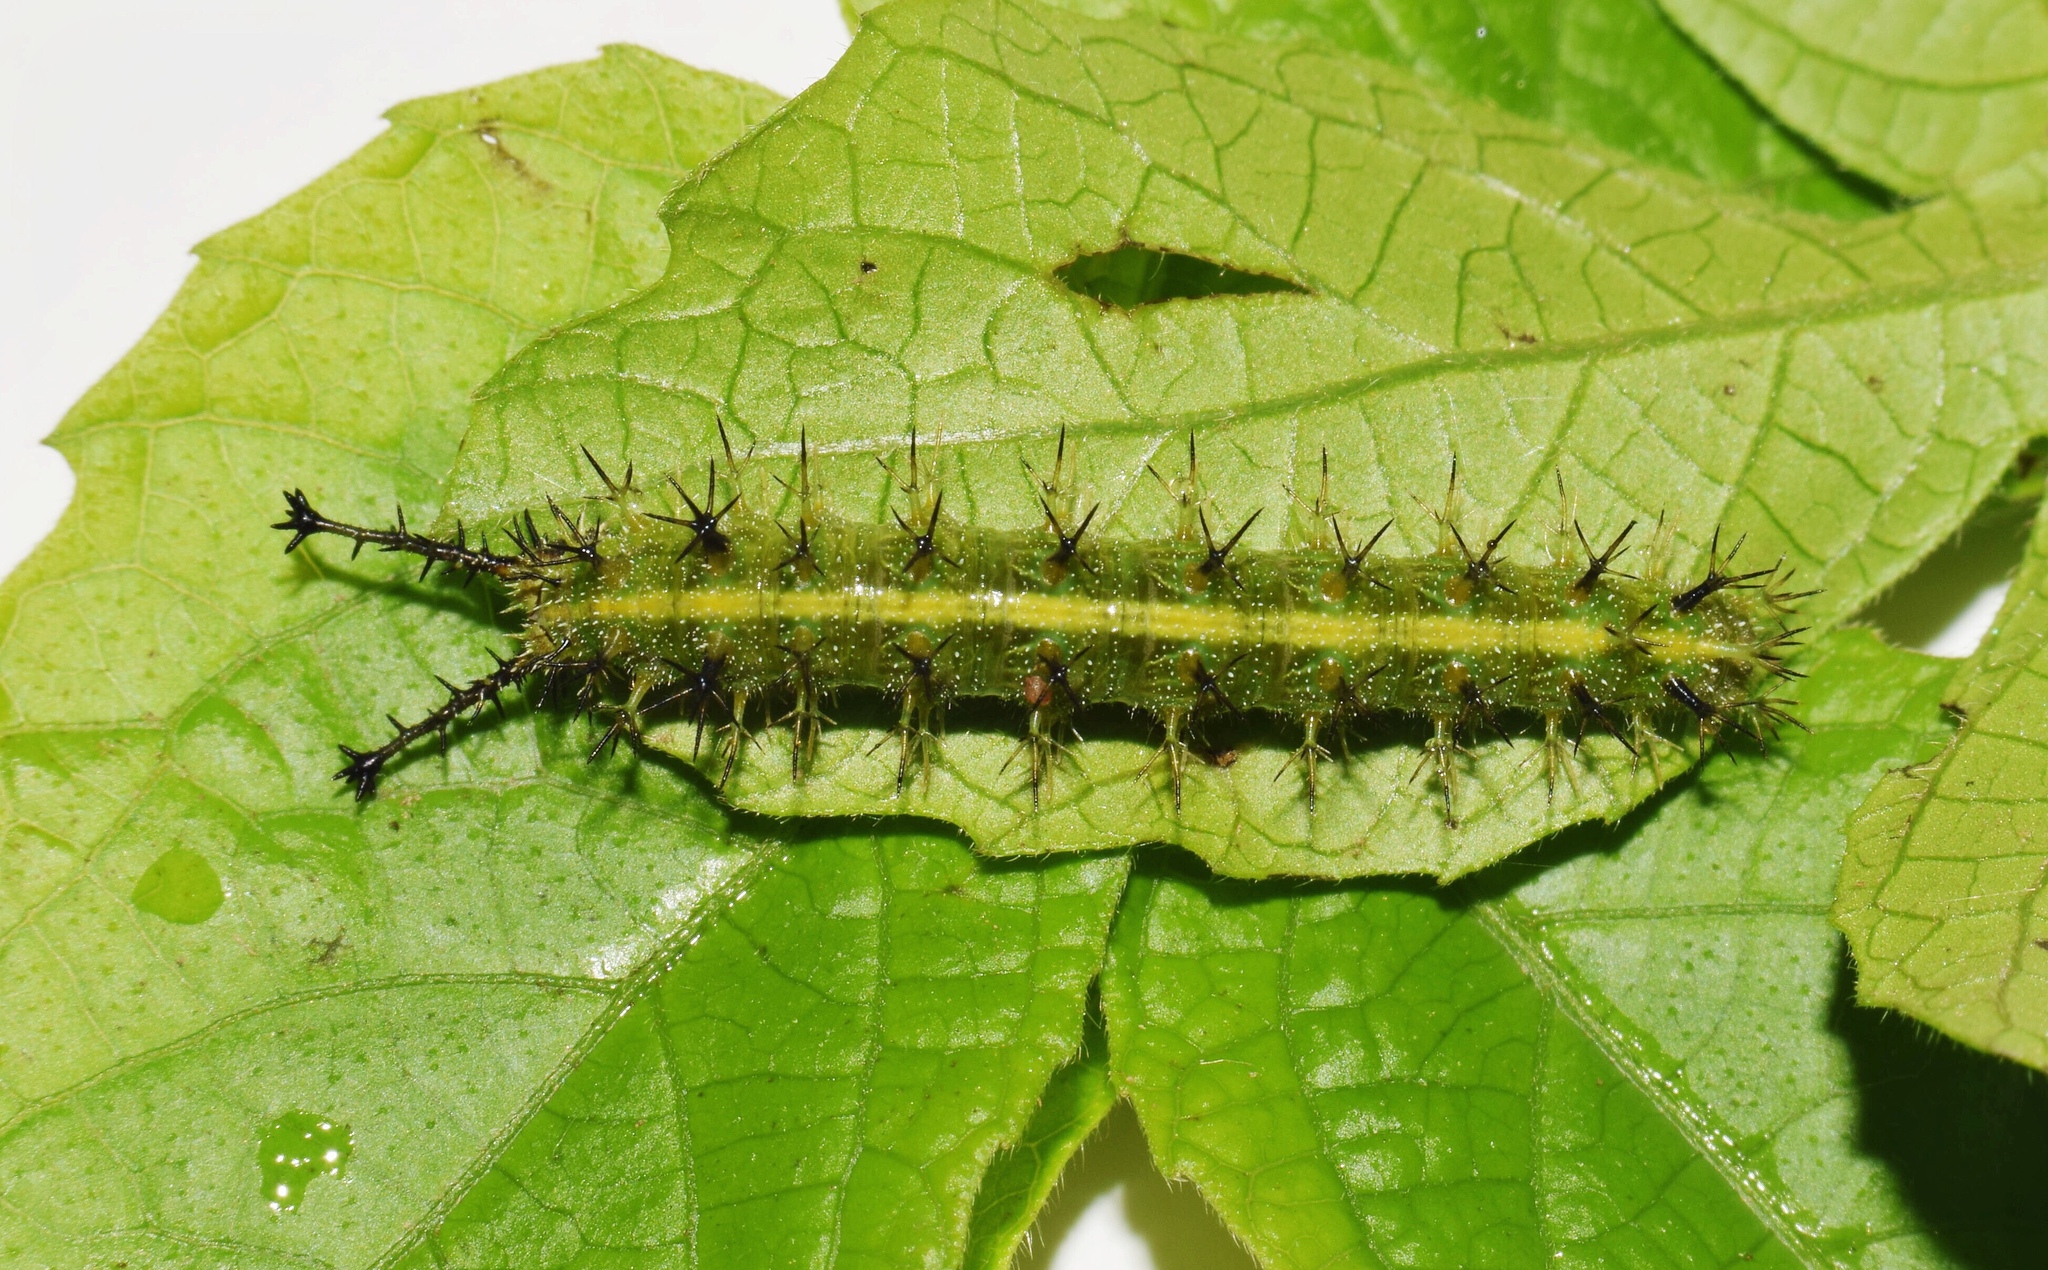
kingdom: Animalia
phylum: Arthropoda
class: Insecta
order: Lepidoptera
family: Nymphalidae
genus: Byblia
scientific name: Byblia acheloia
